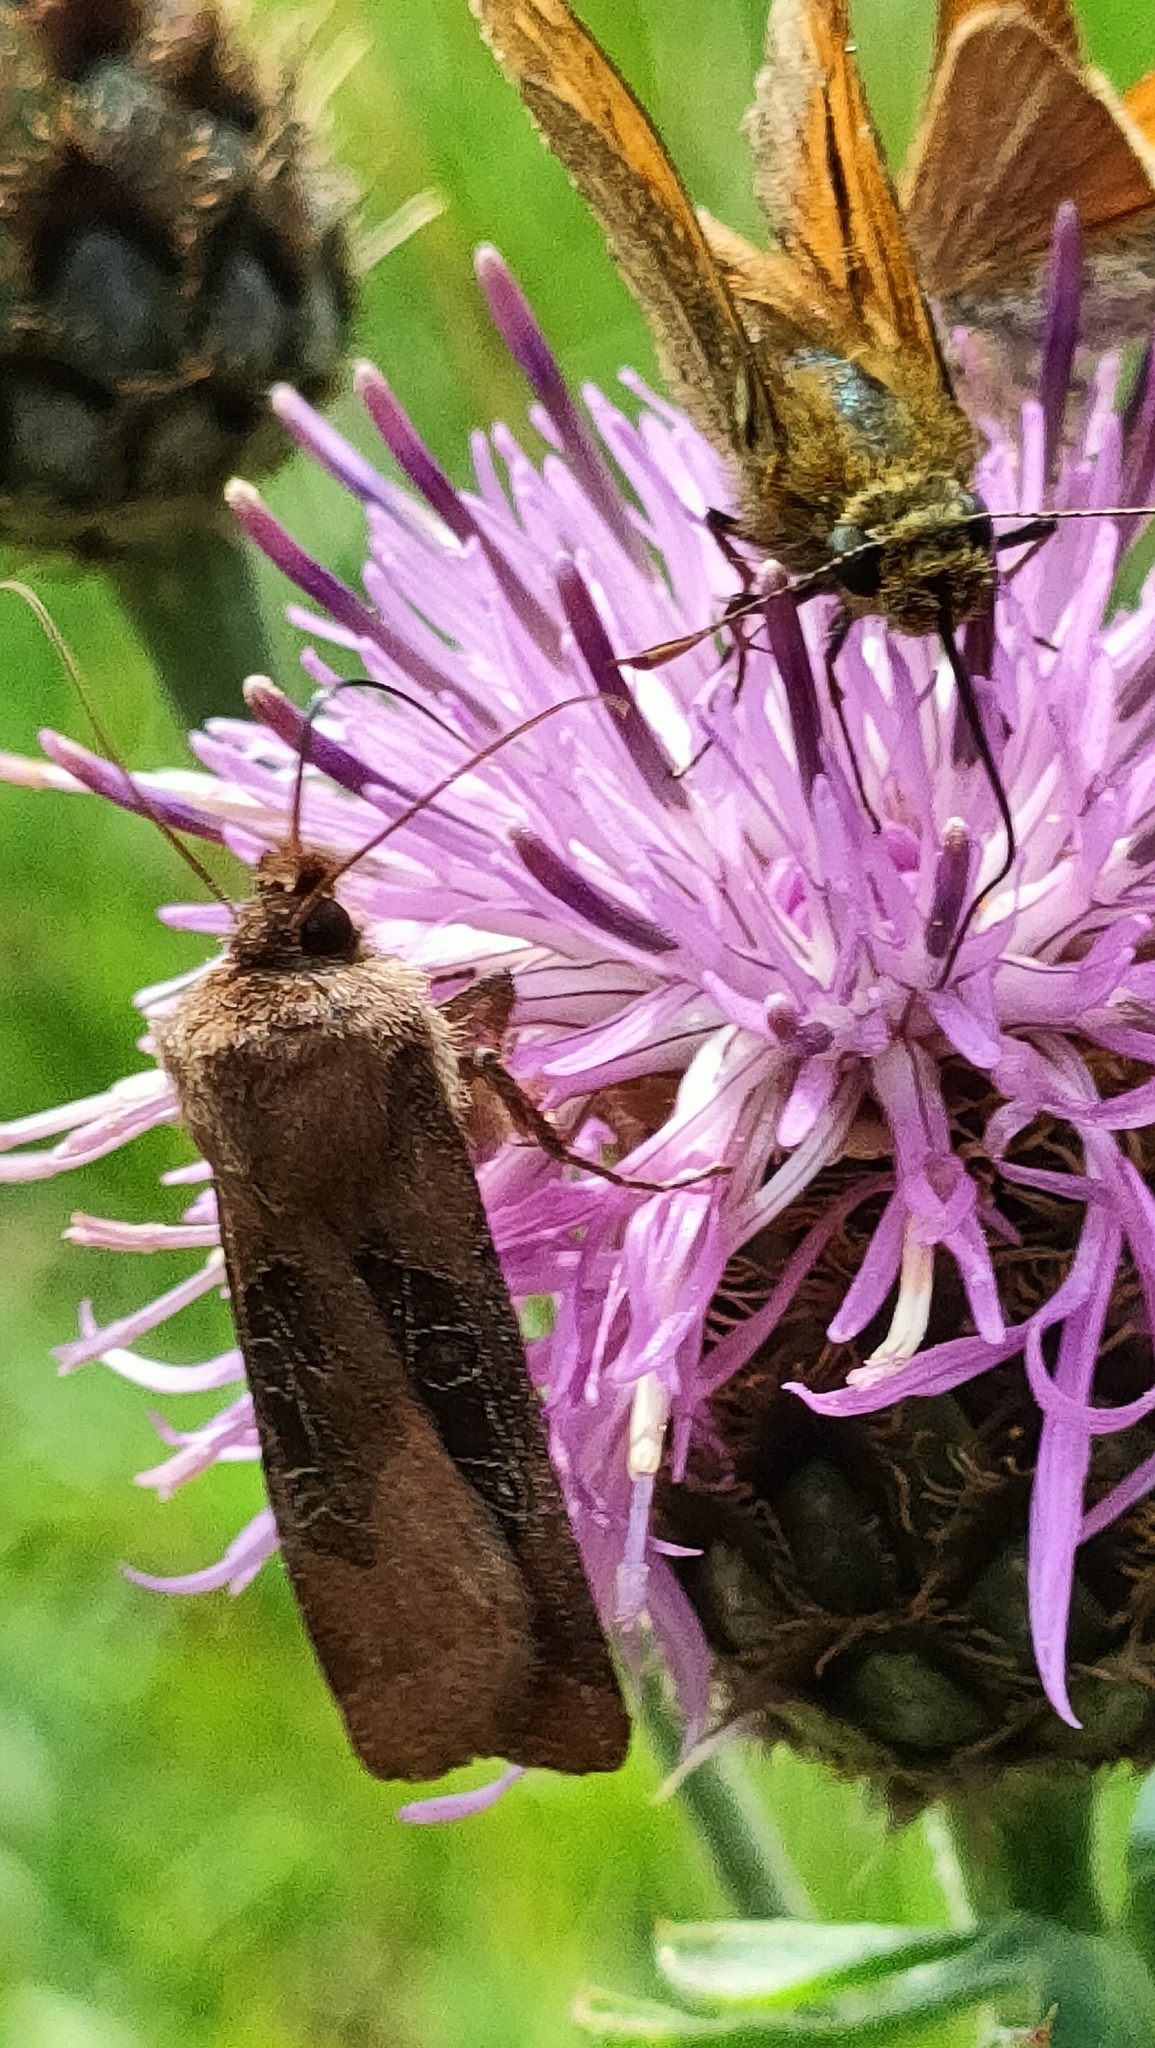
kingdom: Animalia
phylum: Arthropoda
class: Insecta
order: Lepidoptera
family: Noctuidae
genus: Chersotis
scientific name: Chersotis cuprea
